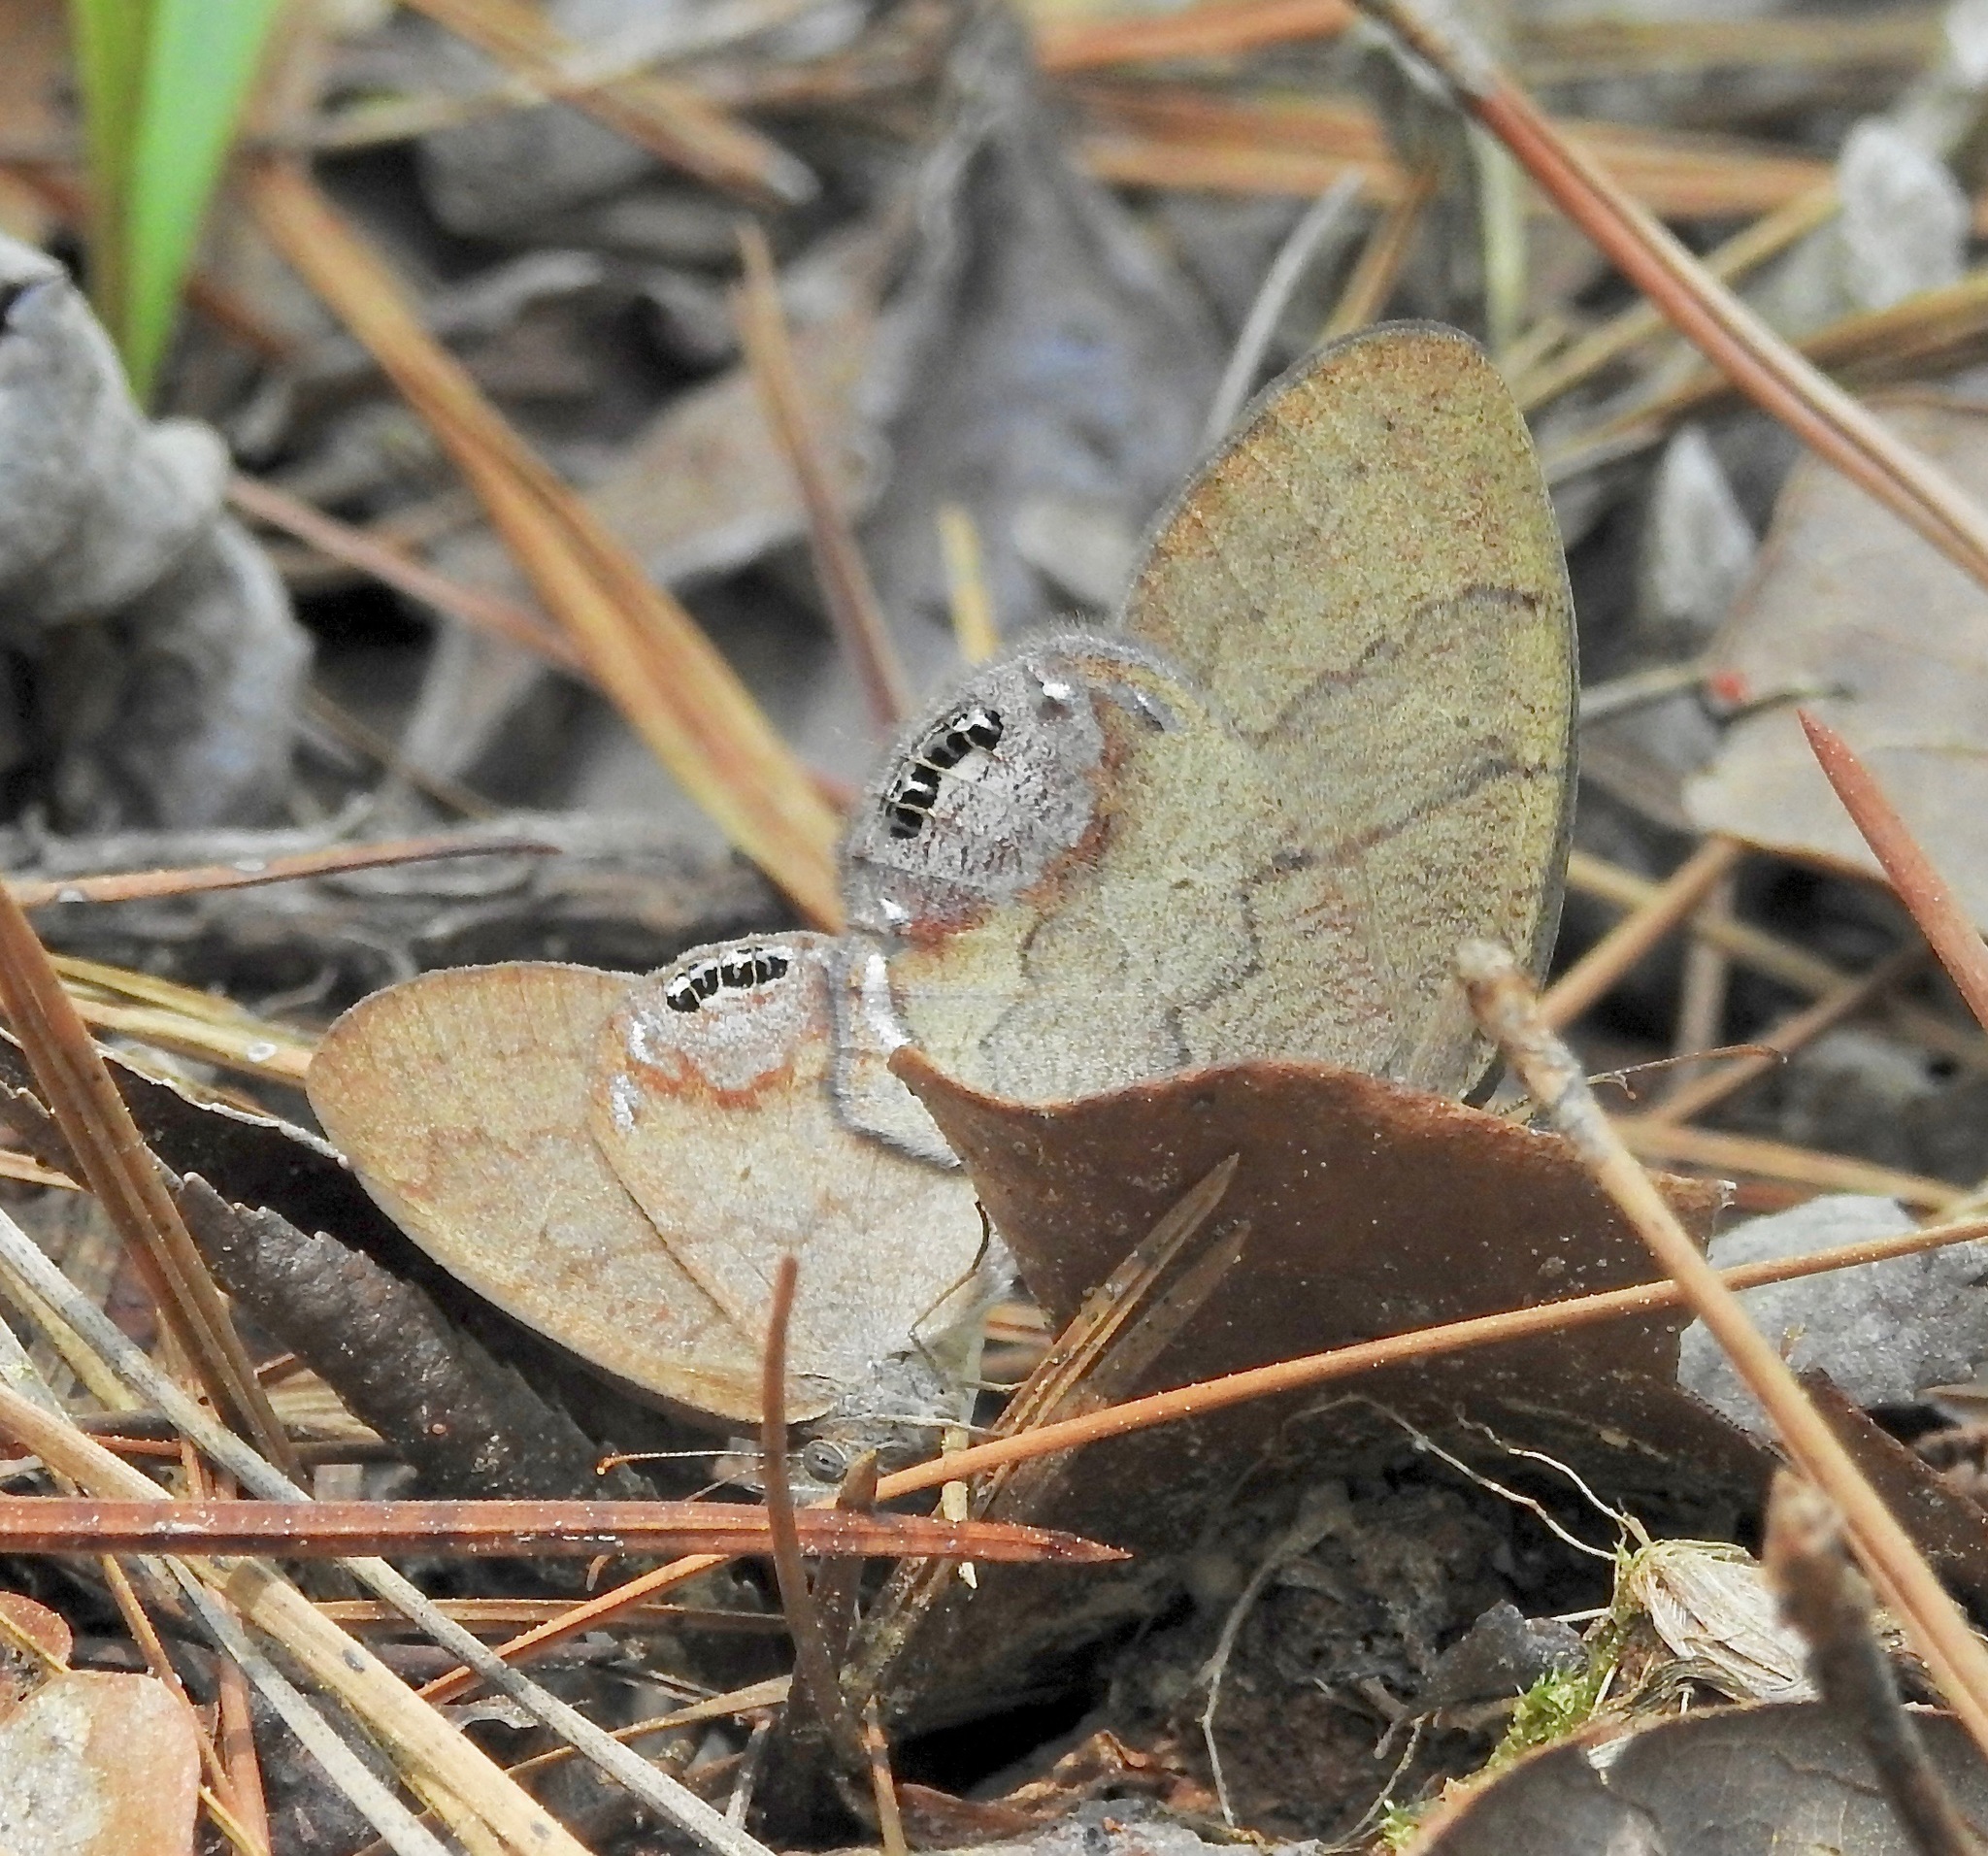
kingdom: Animalia
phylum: Arthropoda
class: Insecta
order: Lepidoptera
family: Nymphalidae
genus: Euptychia
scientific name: Euptychia cornelius
